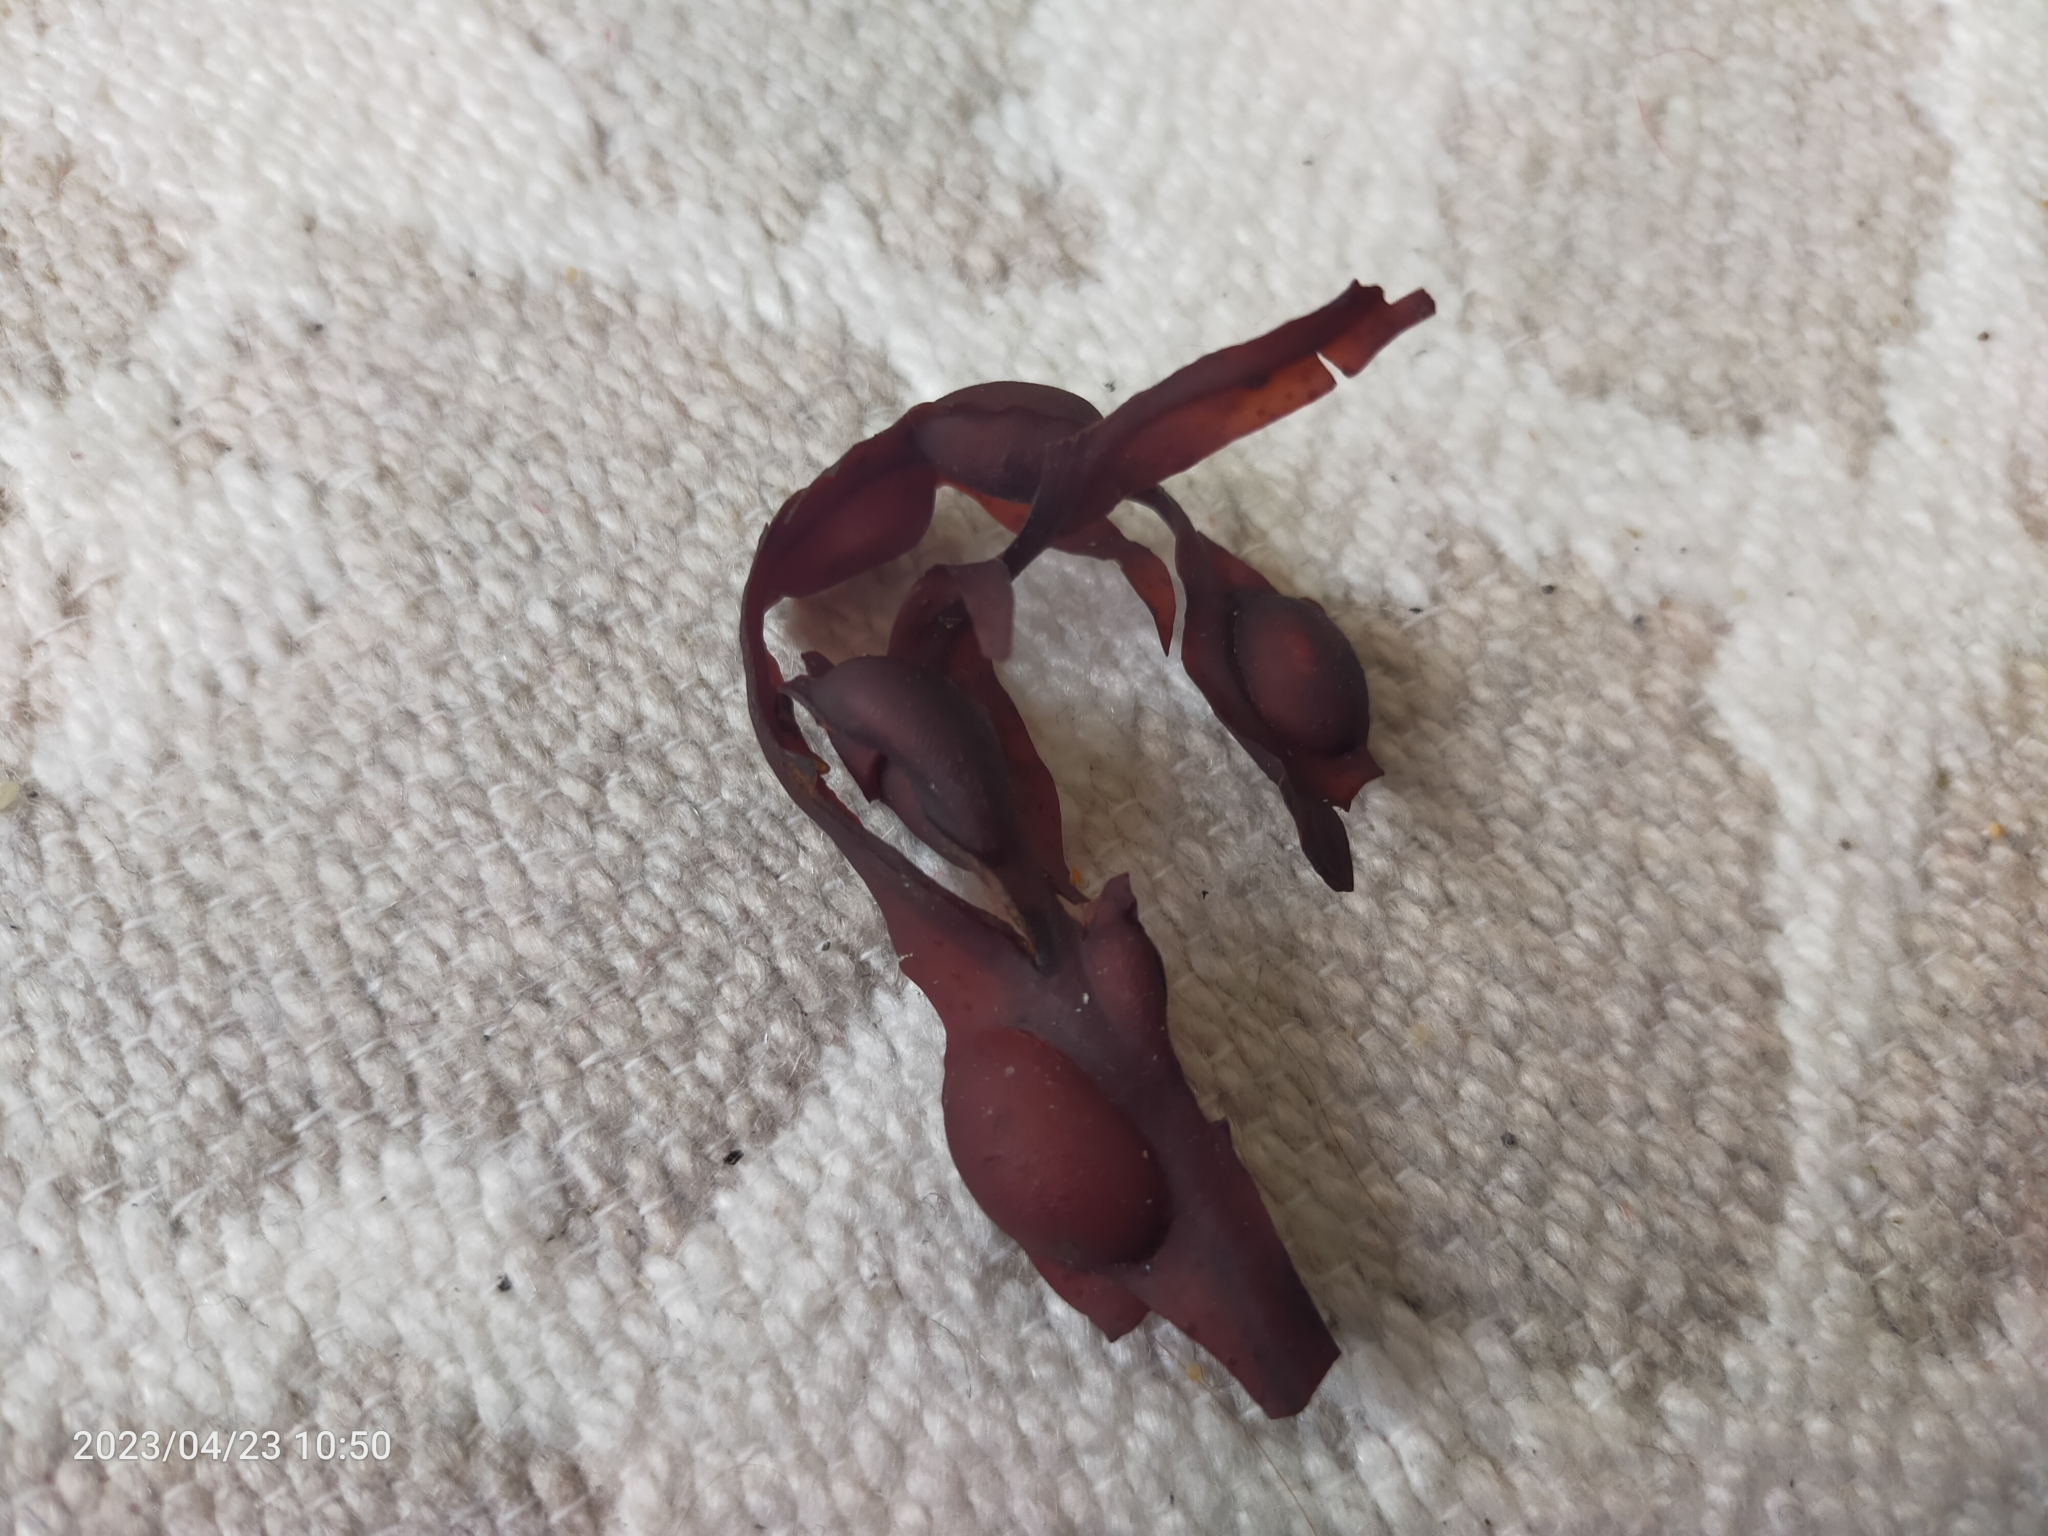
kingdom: Chromista
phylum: Ochrophyta
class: Phaeophyceae
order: Fucales
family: Fucaceae
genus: Fucus
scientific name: Fucus vesiculosus
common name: Bladder wrack
